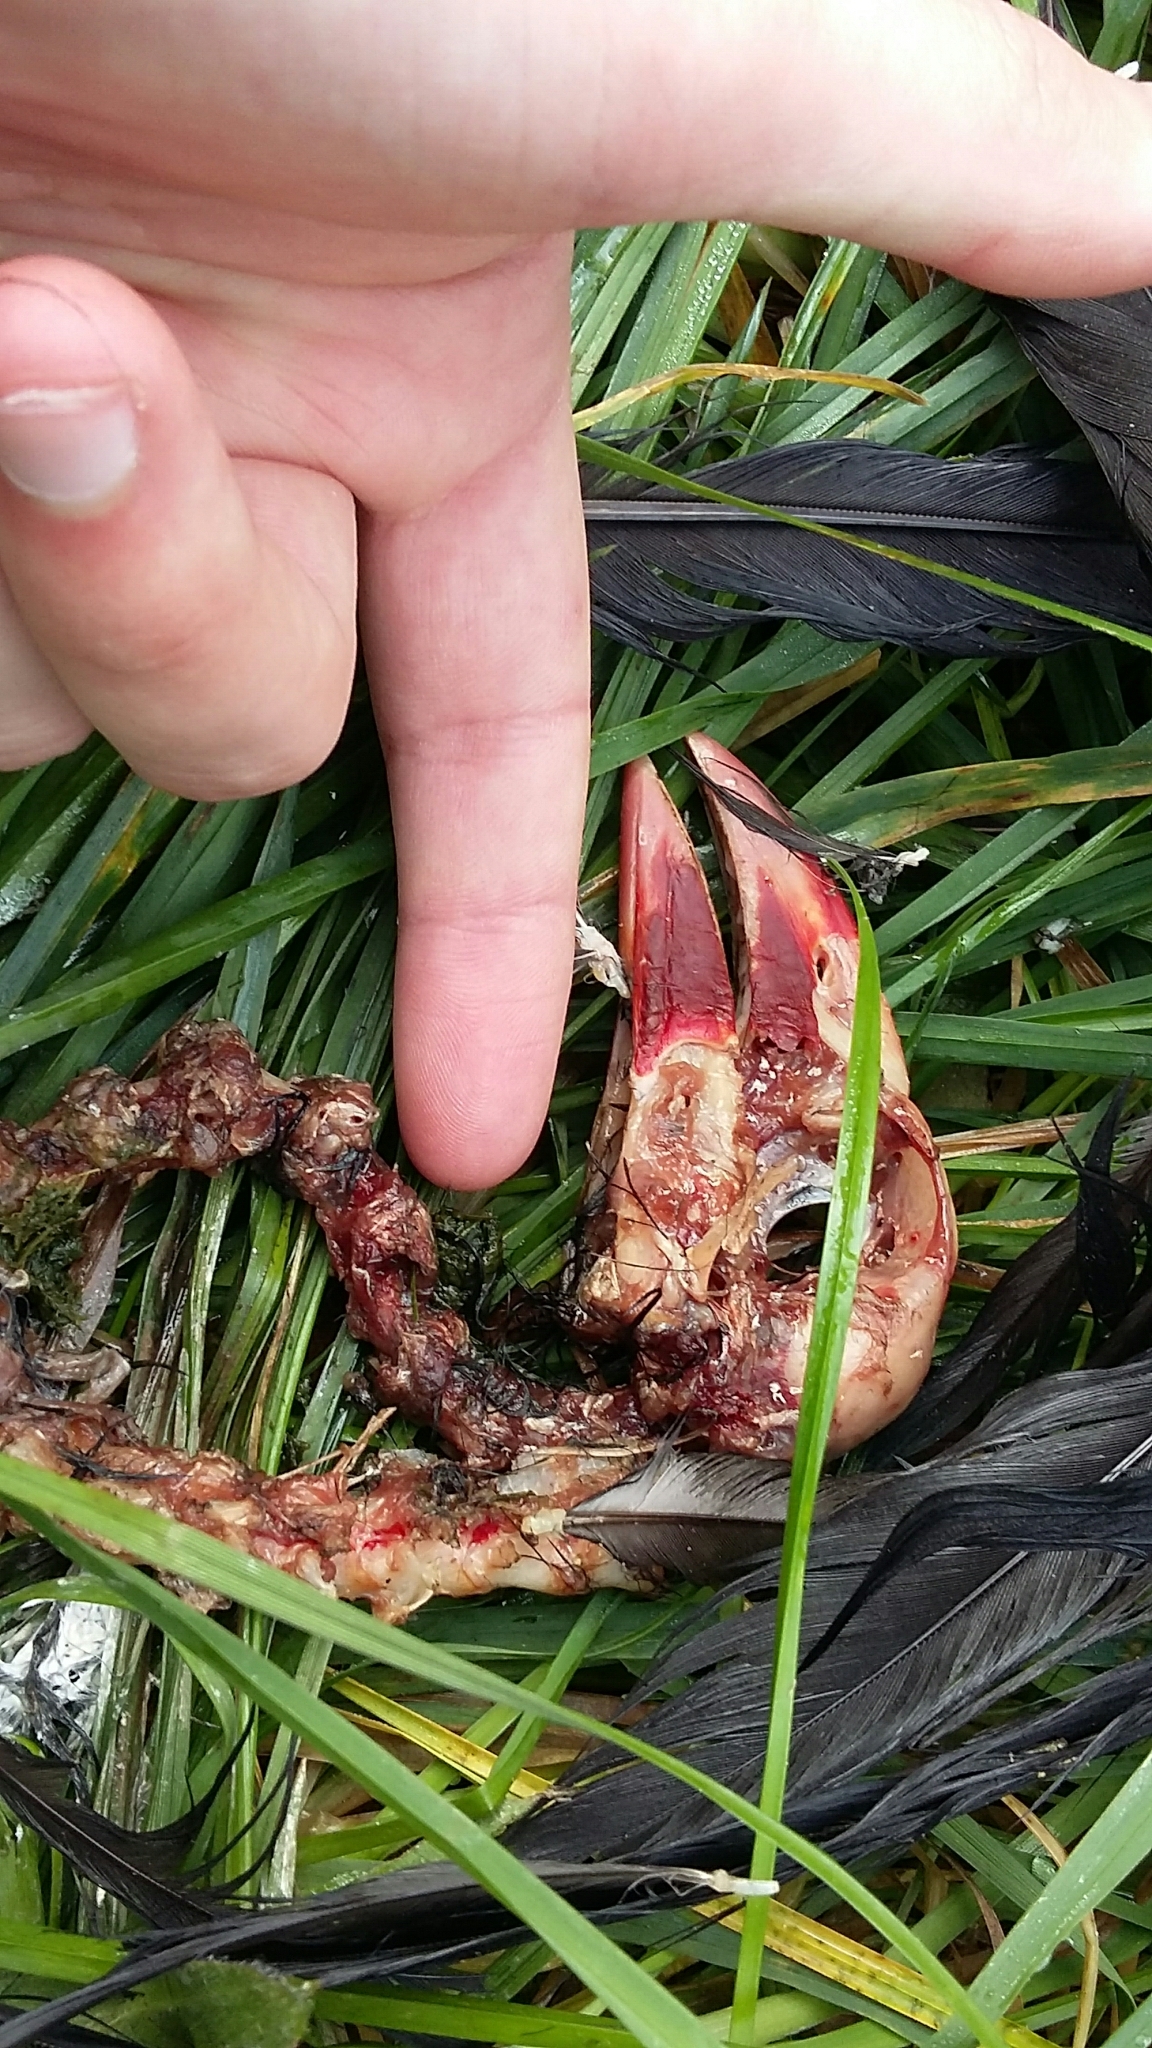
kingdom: Animalia
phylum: Chordata
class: Aves
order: Gruiformes
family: Rallidae
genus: Porphyrio
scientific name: Porphyrio melanotus
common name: Australasian swamphen
